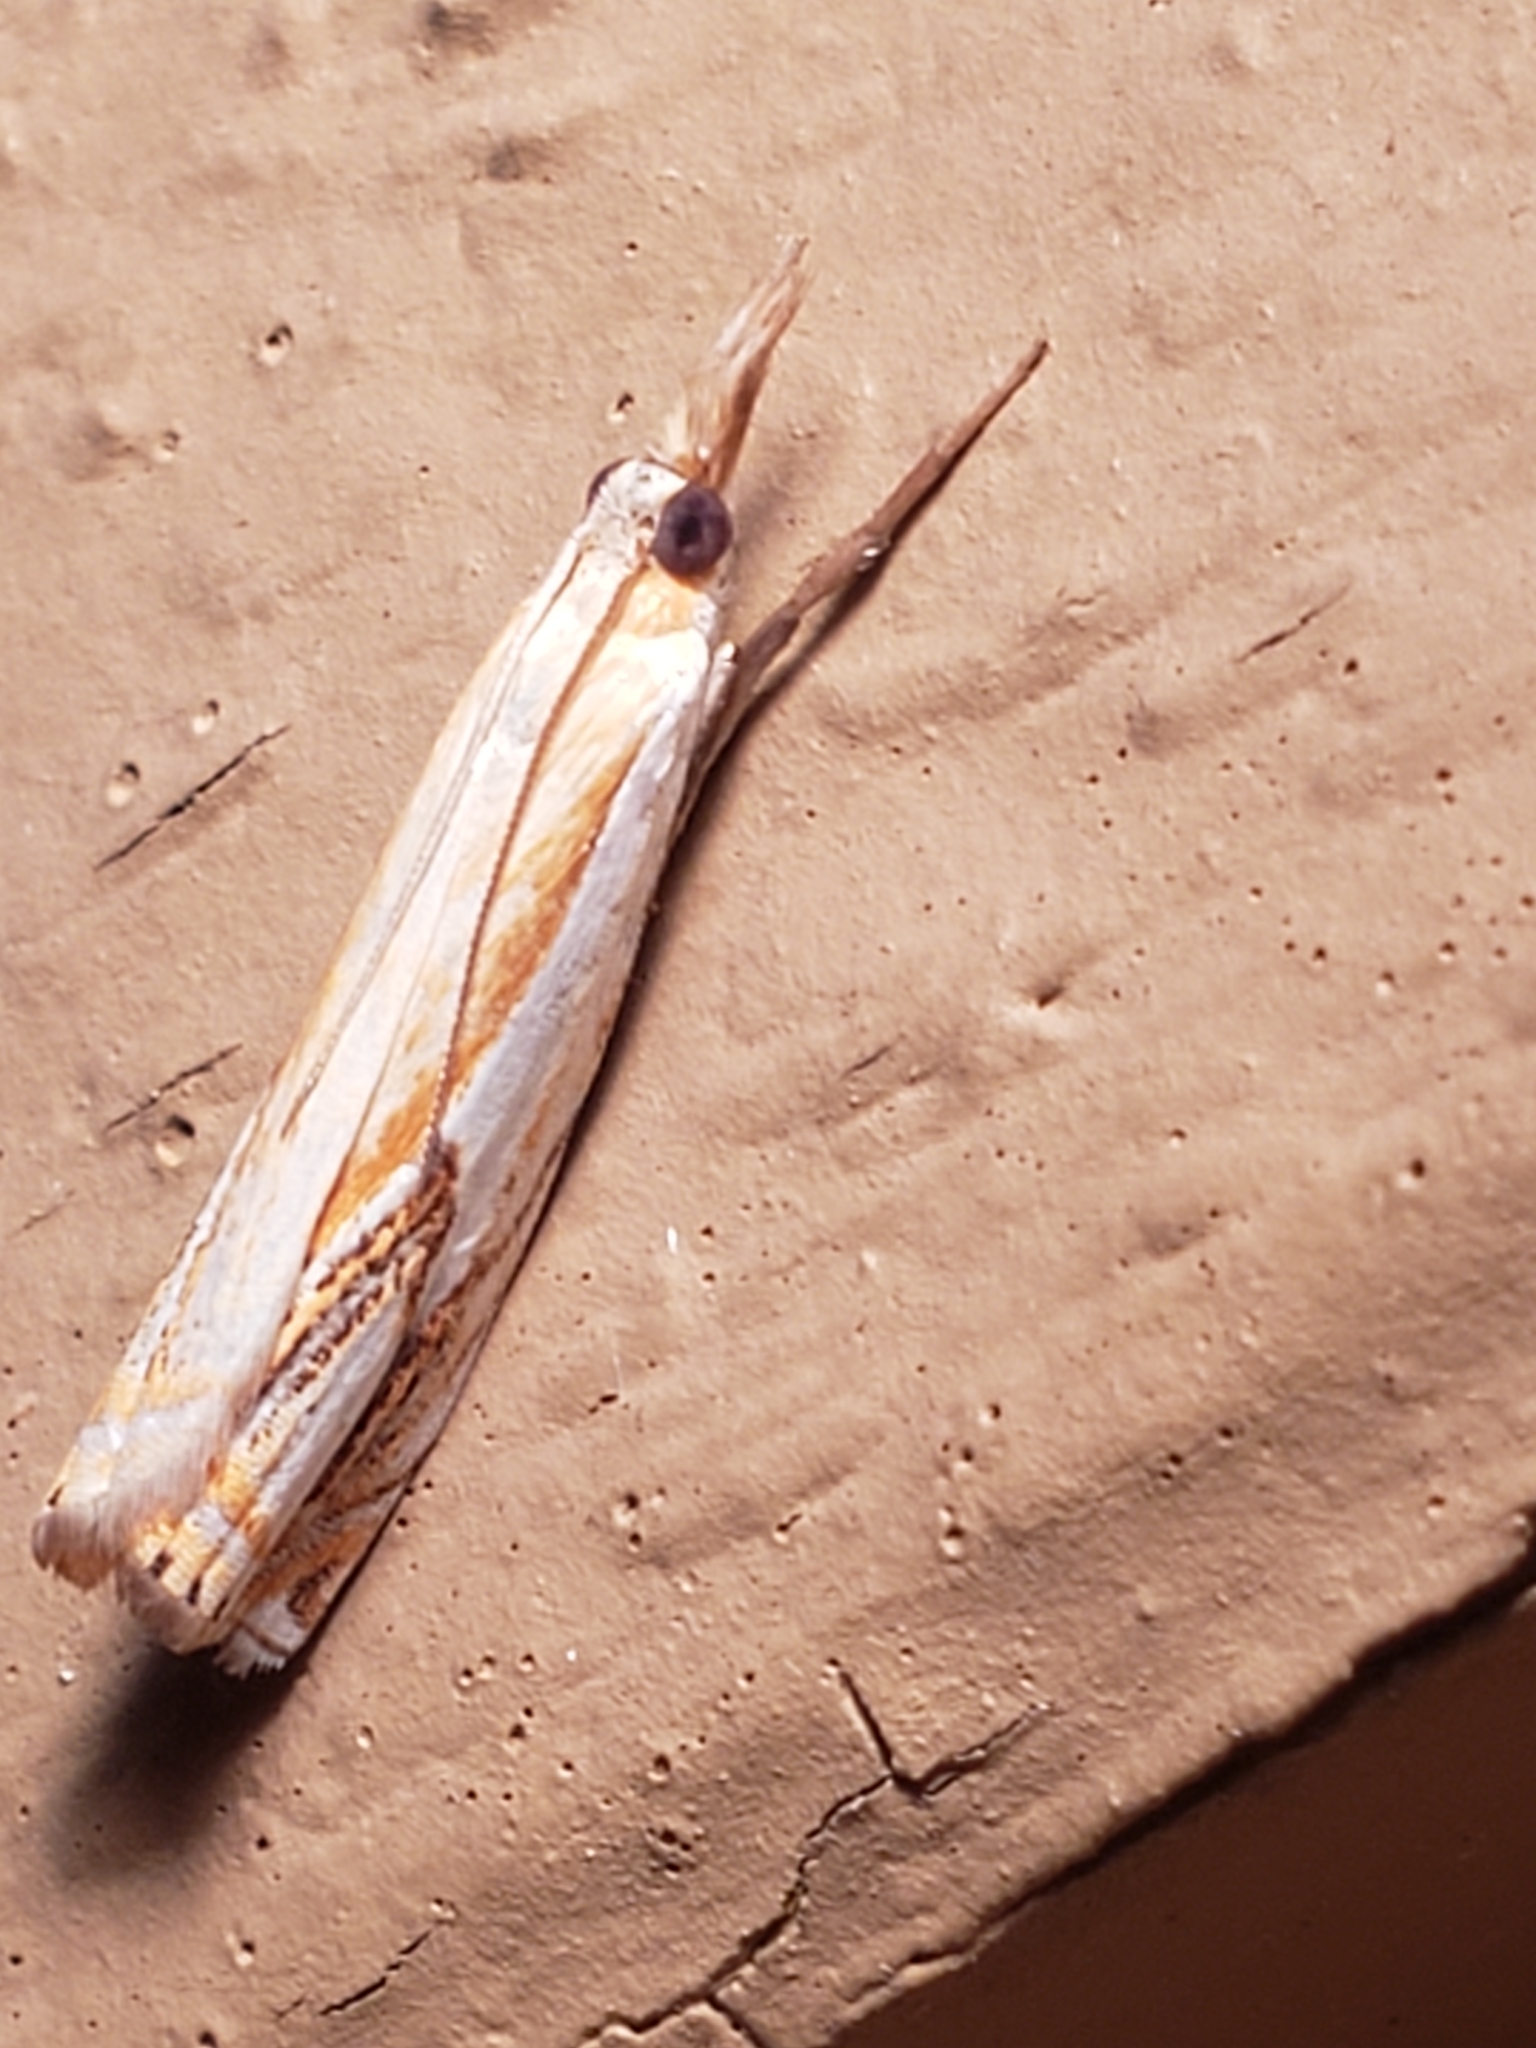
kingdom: Animalia
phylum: Arthropoda
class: Insecta
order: Lepidoptera
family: Crambidae
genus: Crambus
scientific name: Crambus agitatellus
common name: Double-banded grass-veneer
